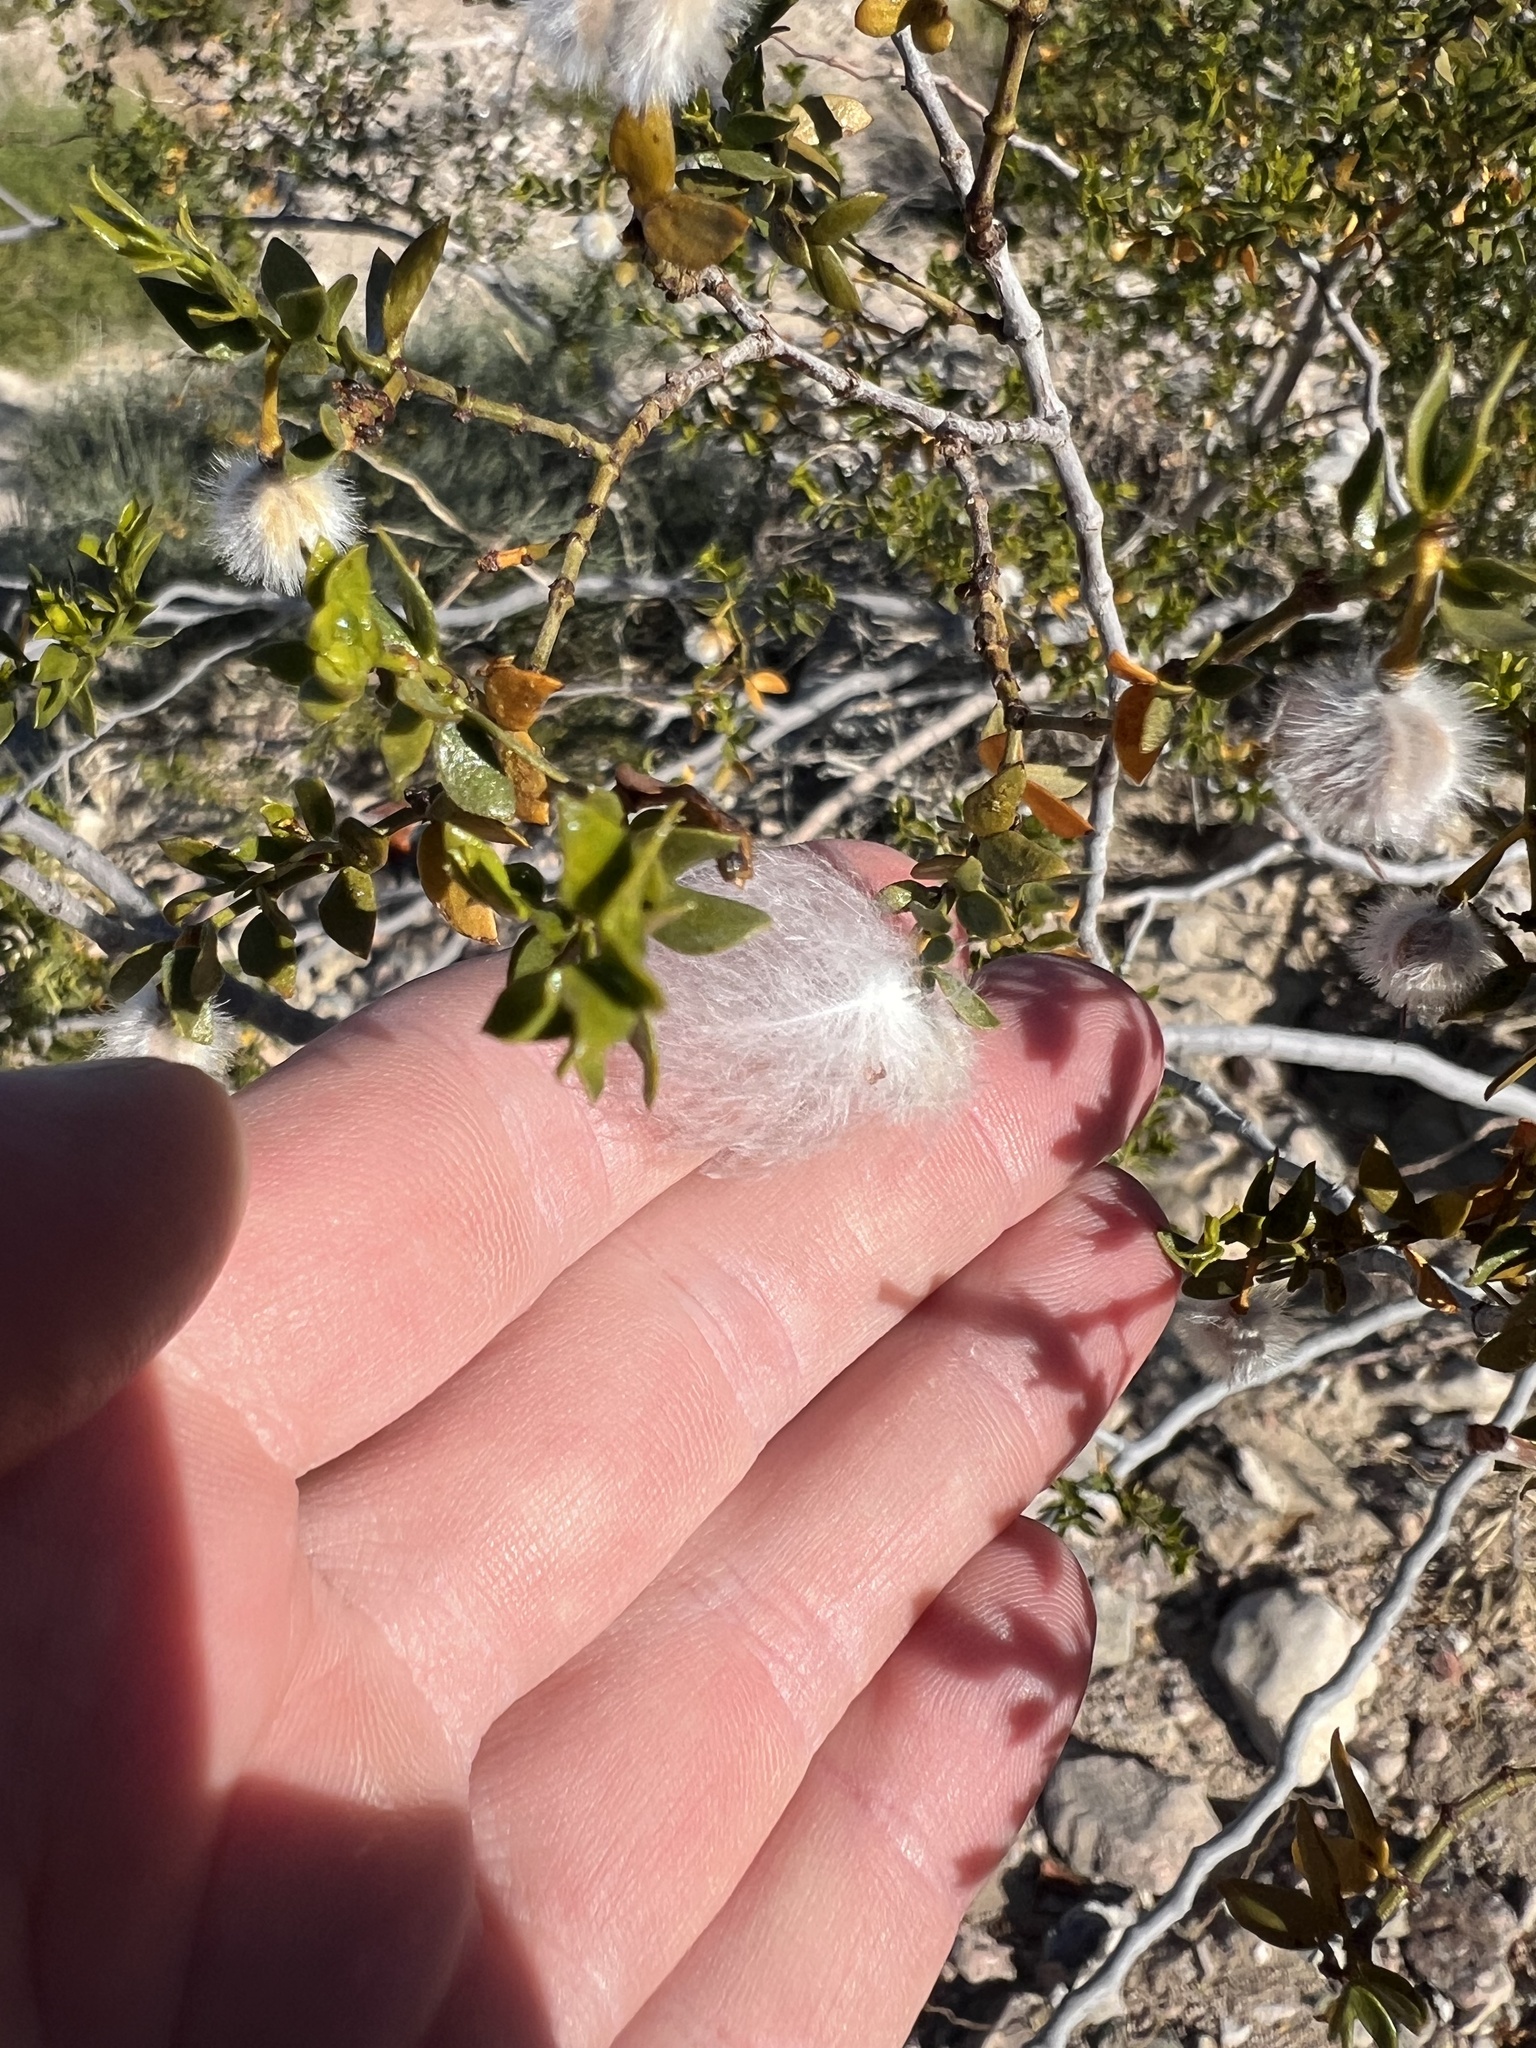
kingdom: Plantae
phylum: Tracheophyta
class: Magnoliopsida
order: Zygophyllales
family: Zygophyllaceae
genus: Larrea
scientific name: Larrea tridentata
